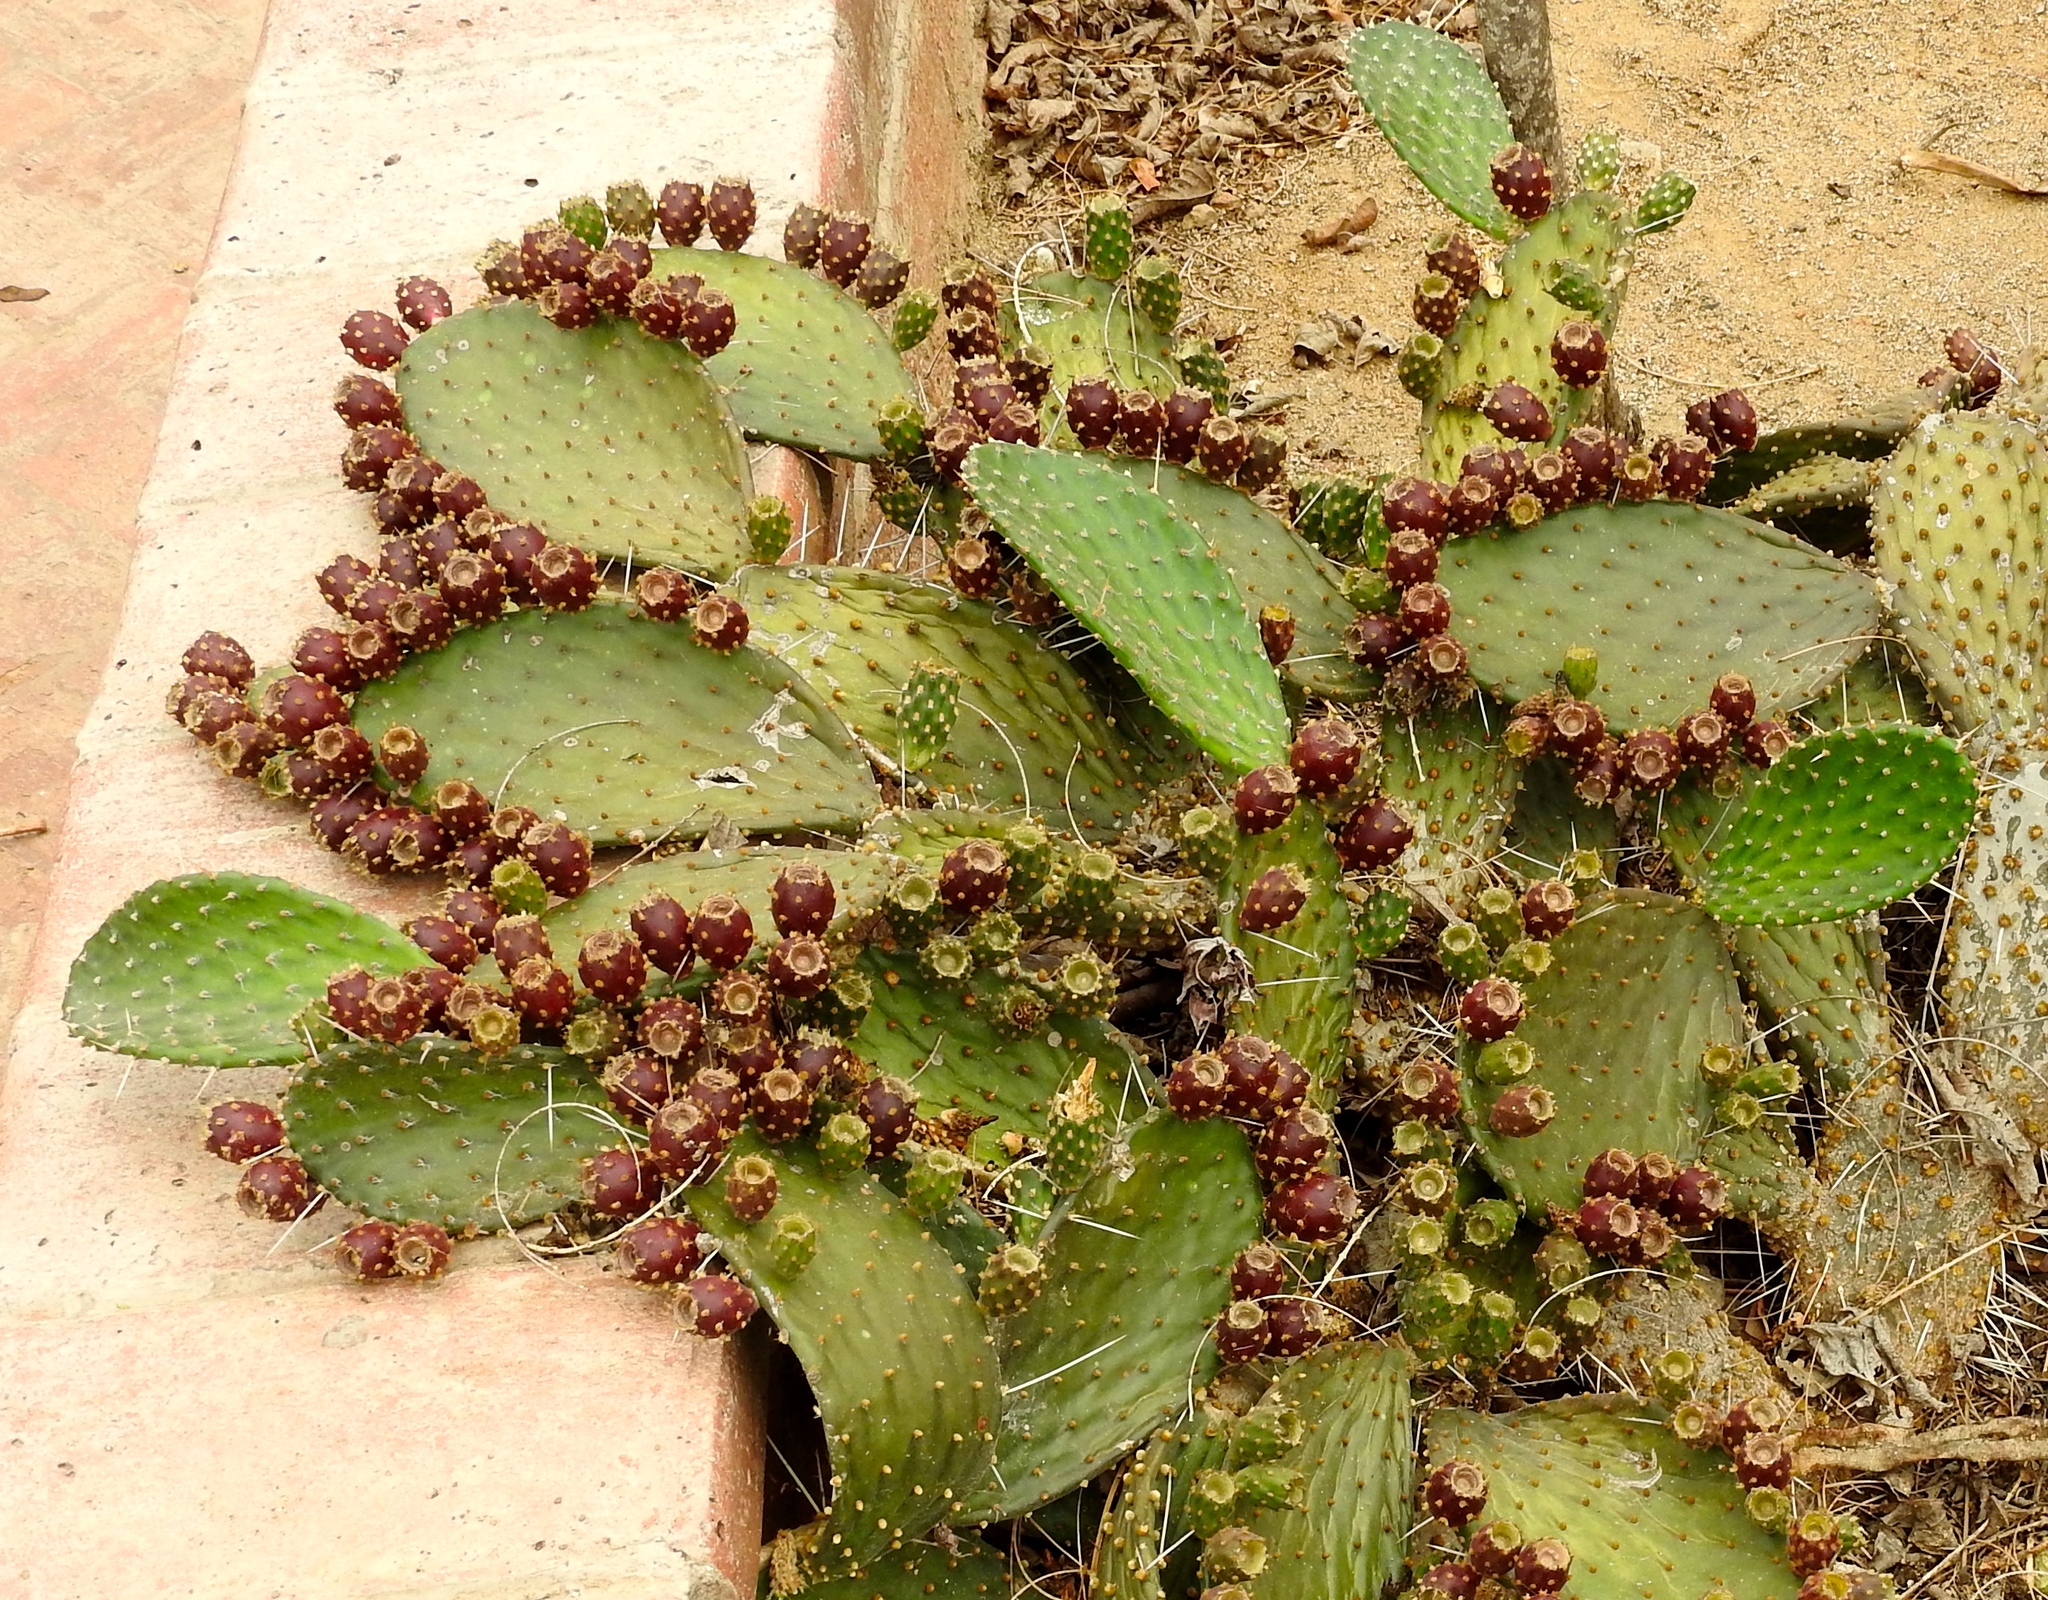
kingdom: Plantae
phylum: Tracheophyta
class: Magnoliopsida
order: Caryophyllales
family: Cactaceae
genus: Opuntia
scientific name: Opuntia decumbens
